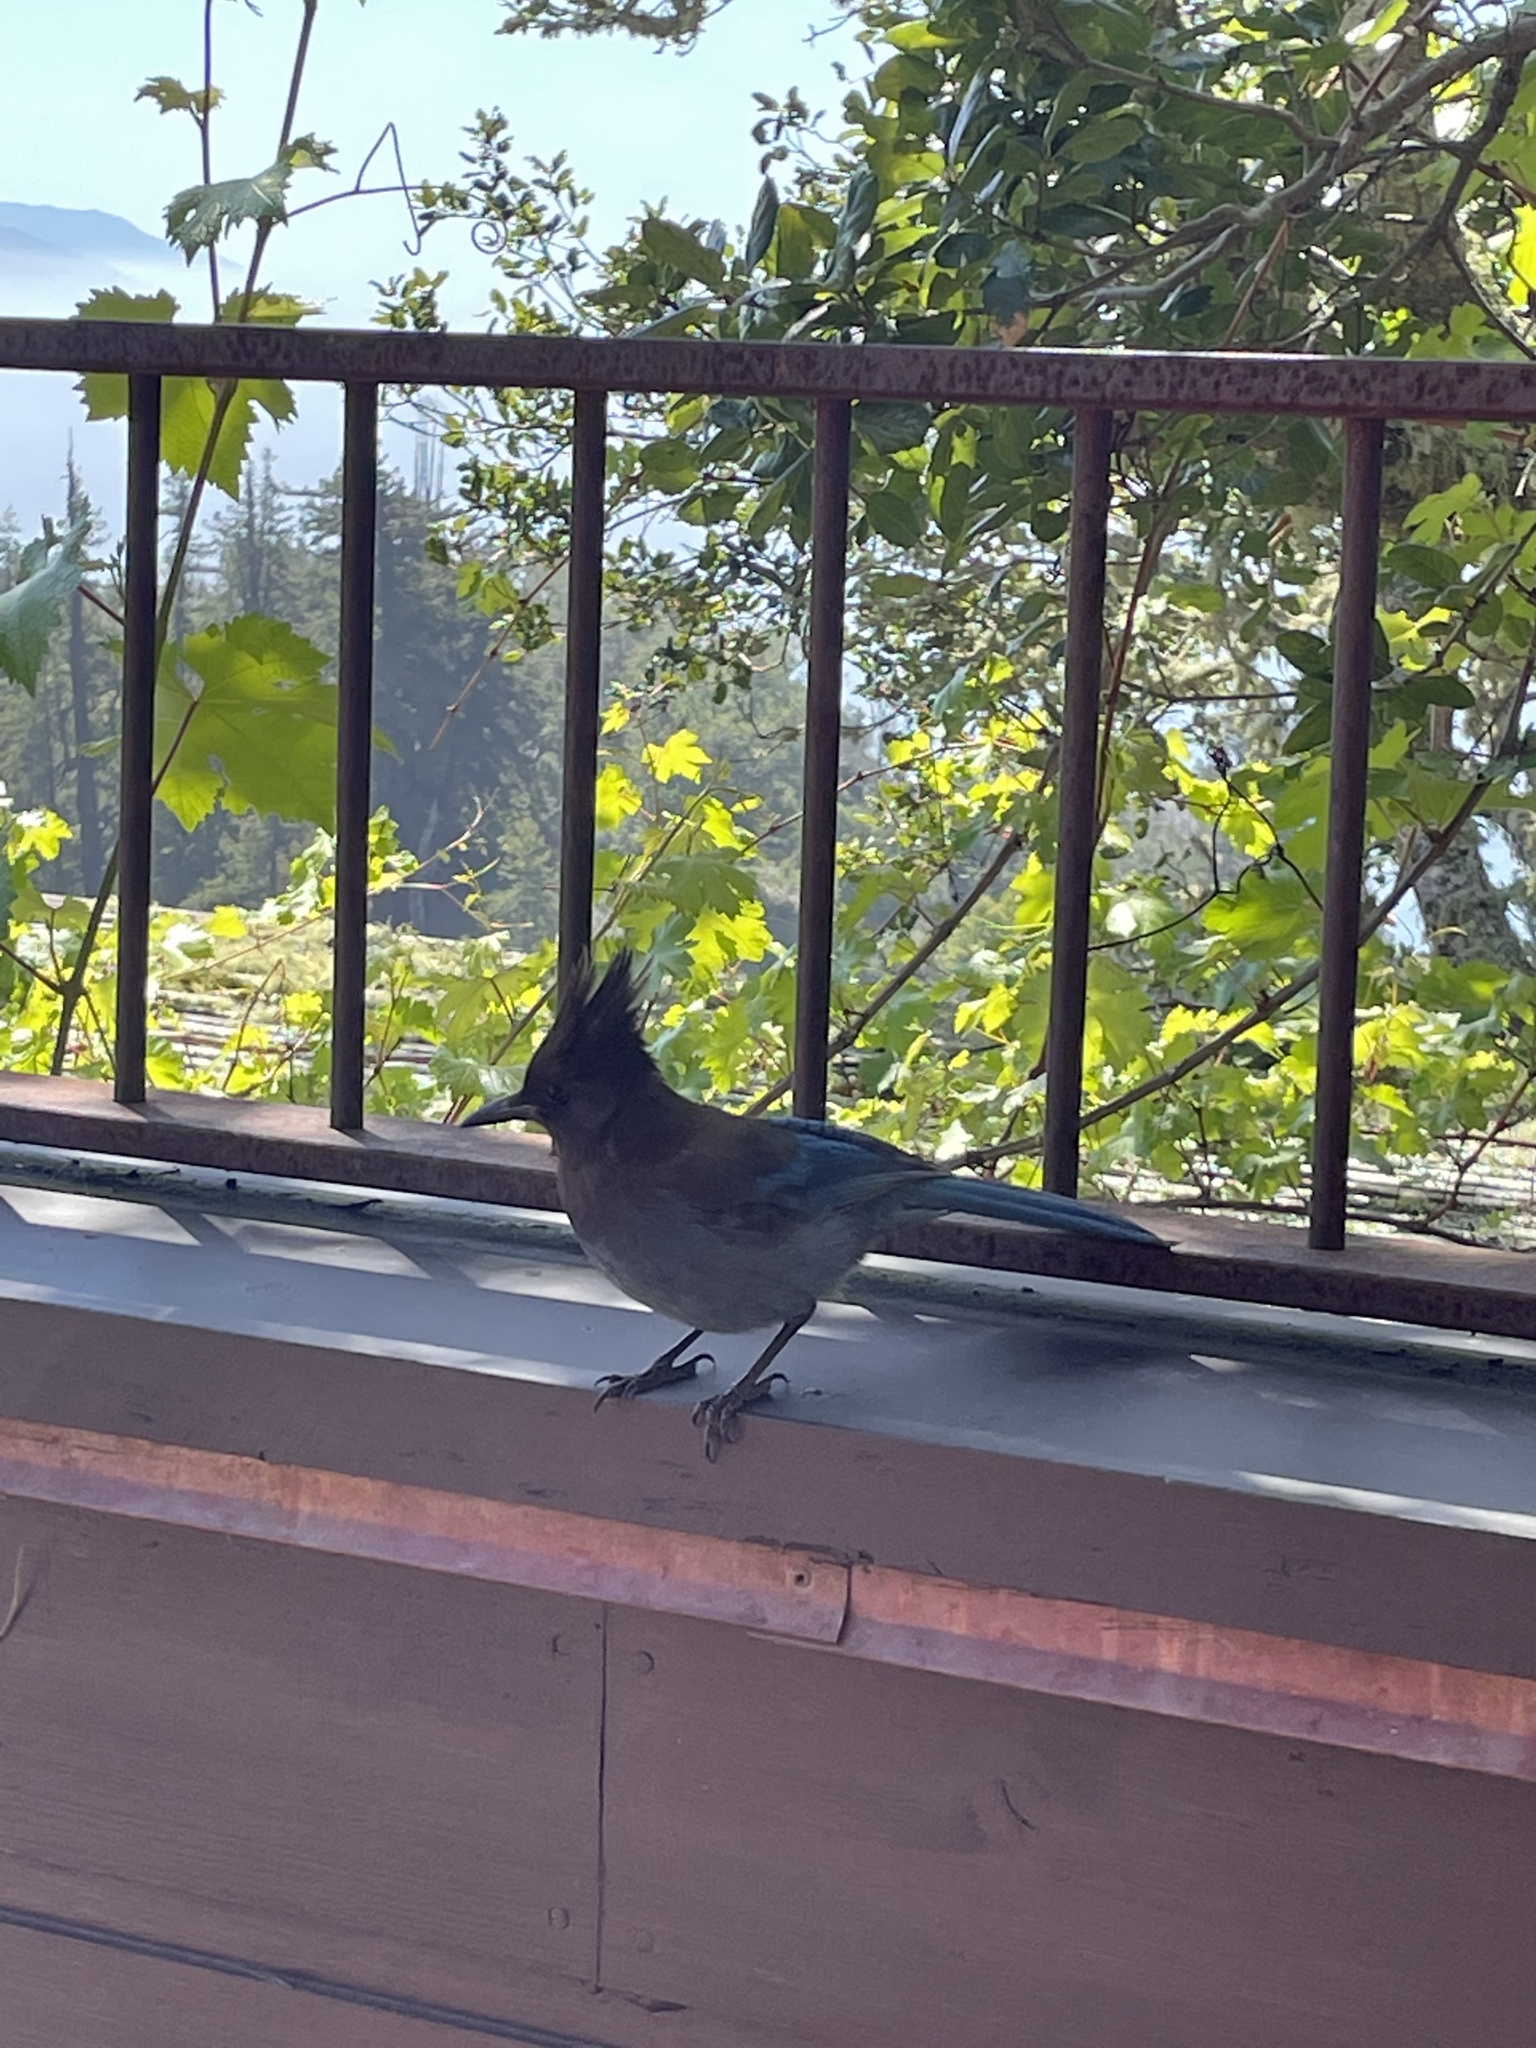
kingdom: Animalia
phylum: Chordata
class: Aves
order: Passeriformes
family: Corvidae
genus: Cyanocitta
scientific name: Cyanocitta stelleri
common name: Steller's jay
